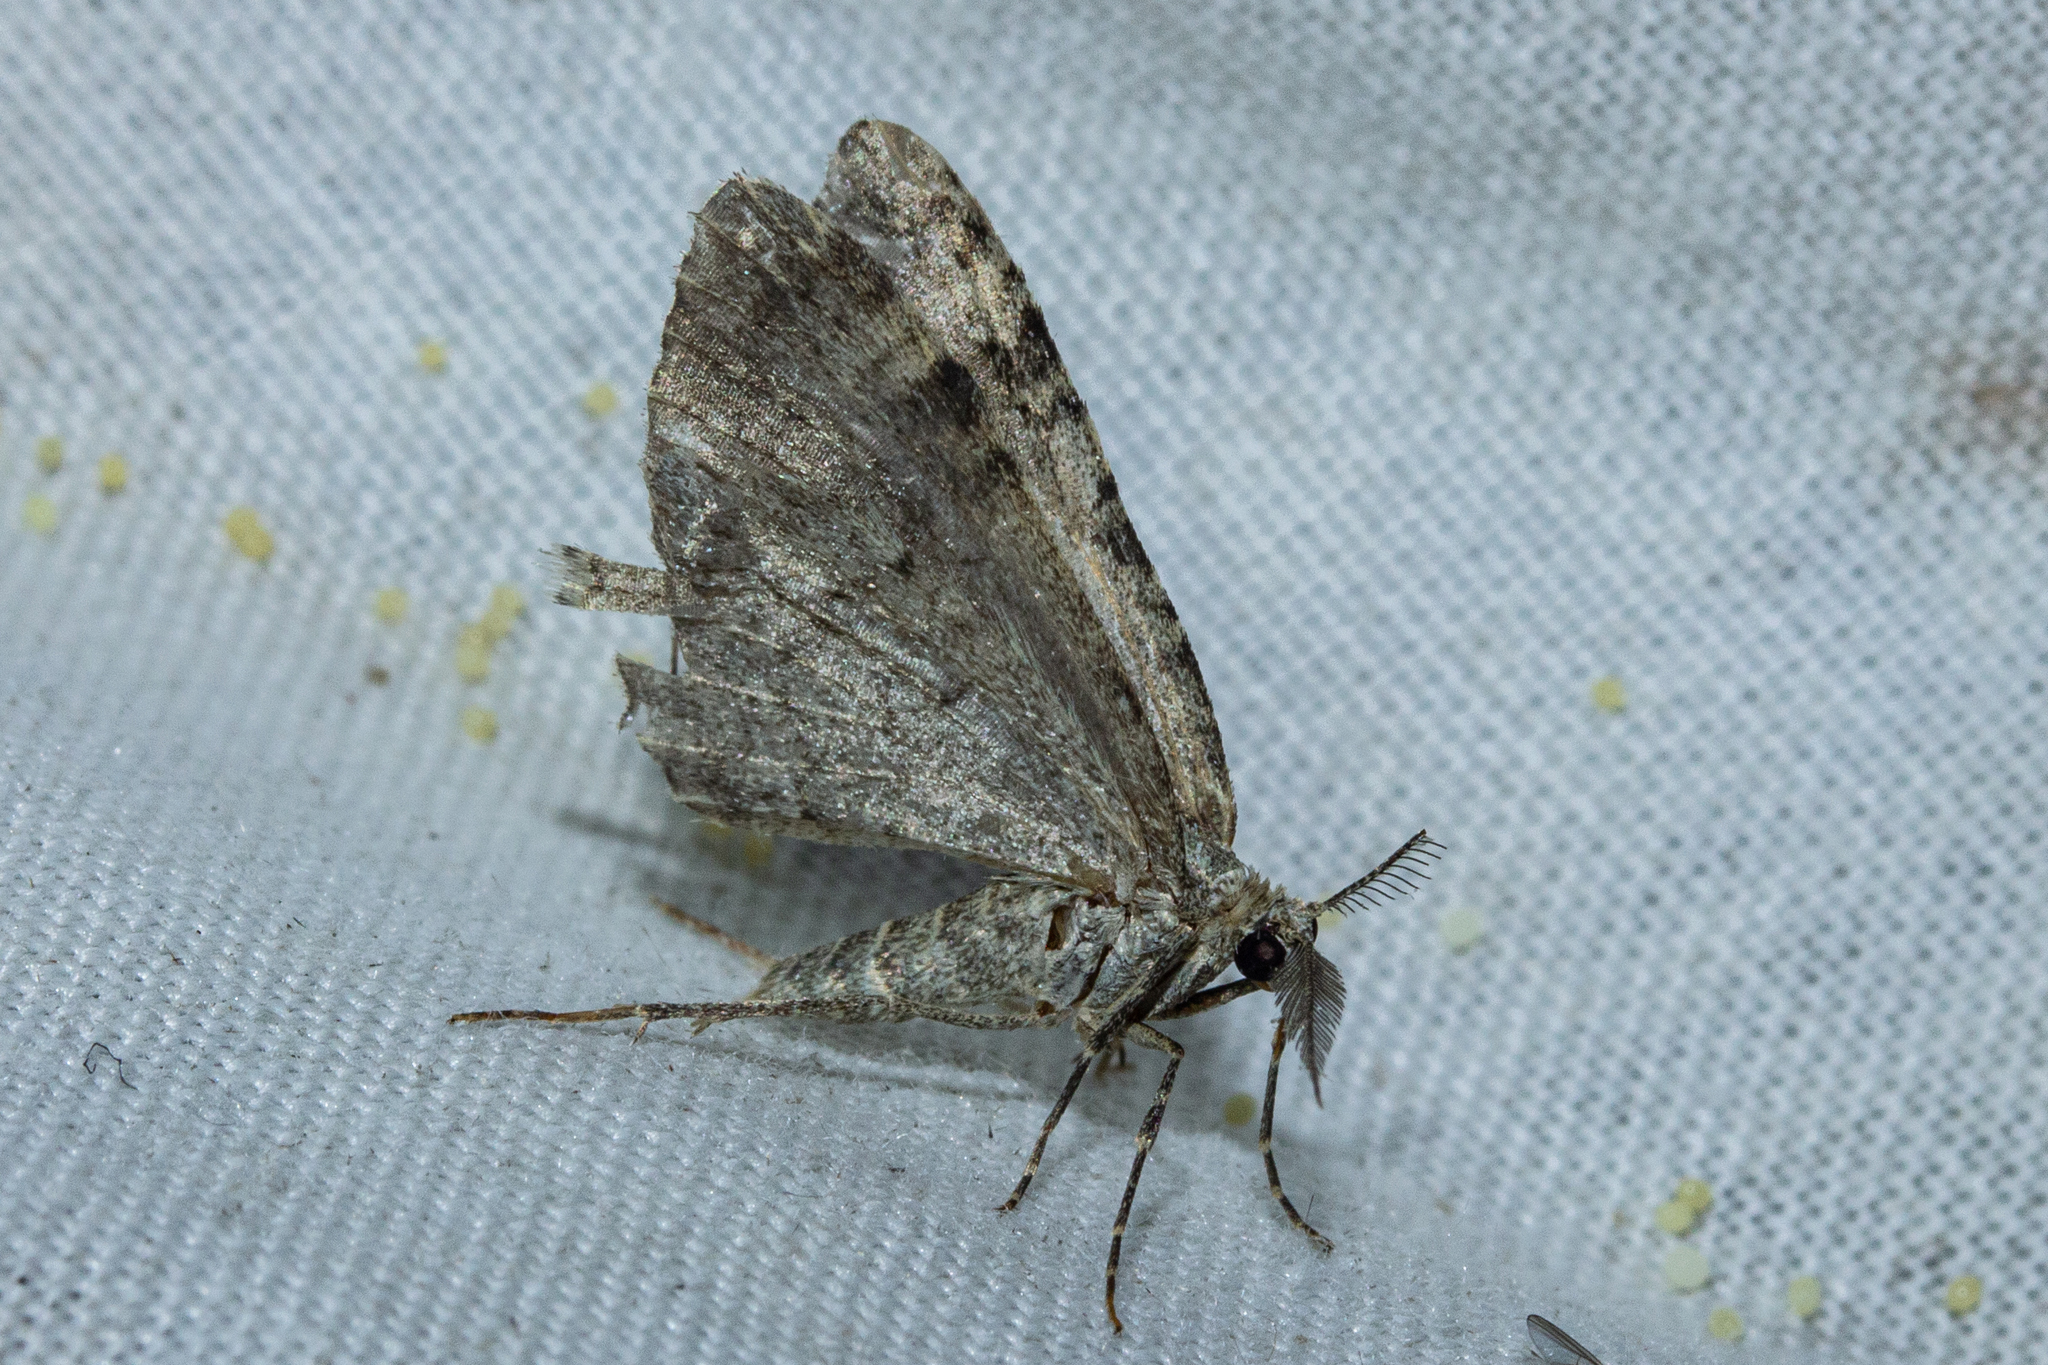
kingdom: Animalia
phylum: Arthropoda
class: Insecta
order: Lepidoptera
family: Geometridae
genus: Helastia
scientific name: Helastia corcularia
